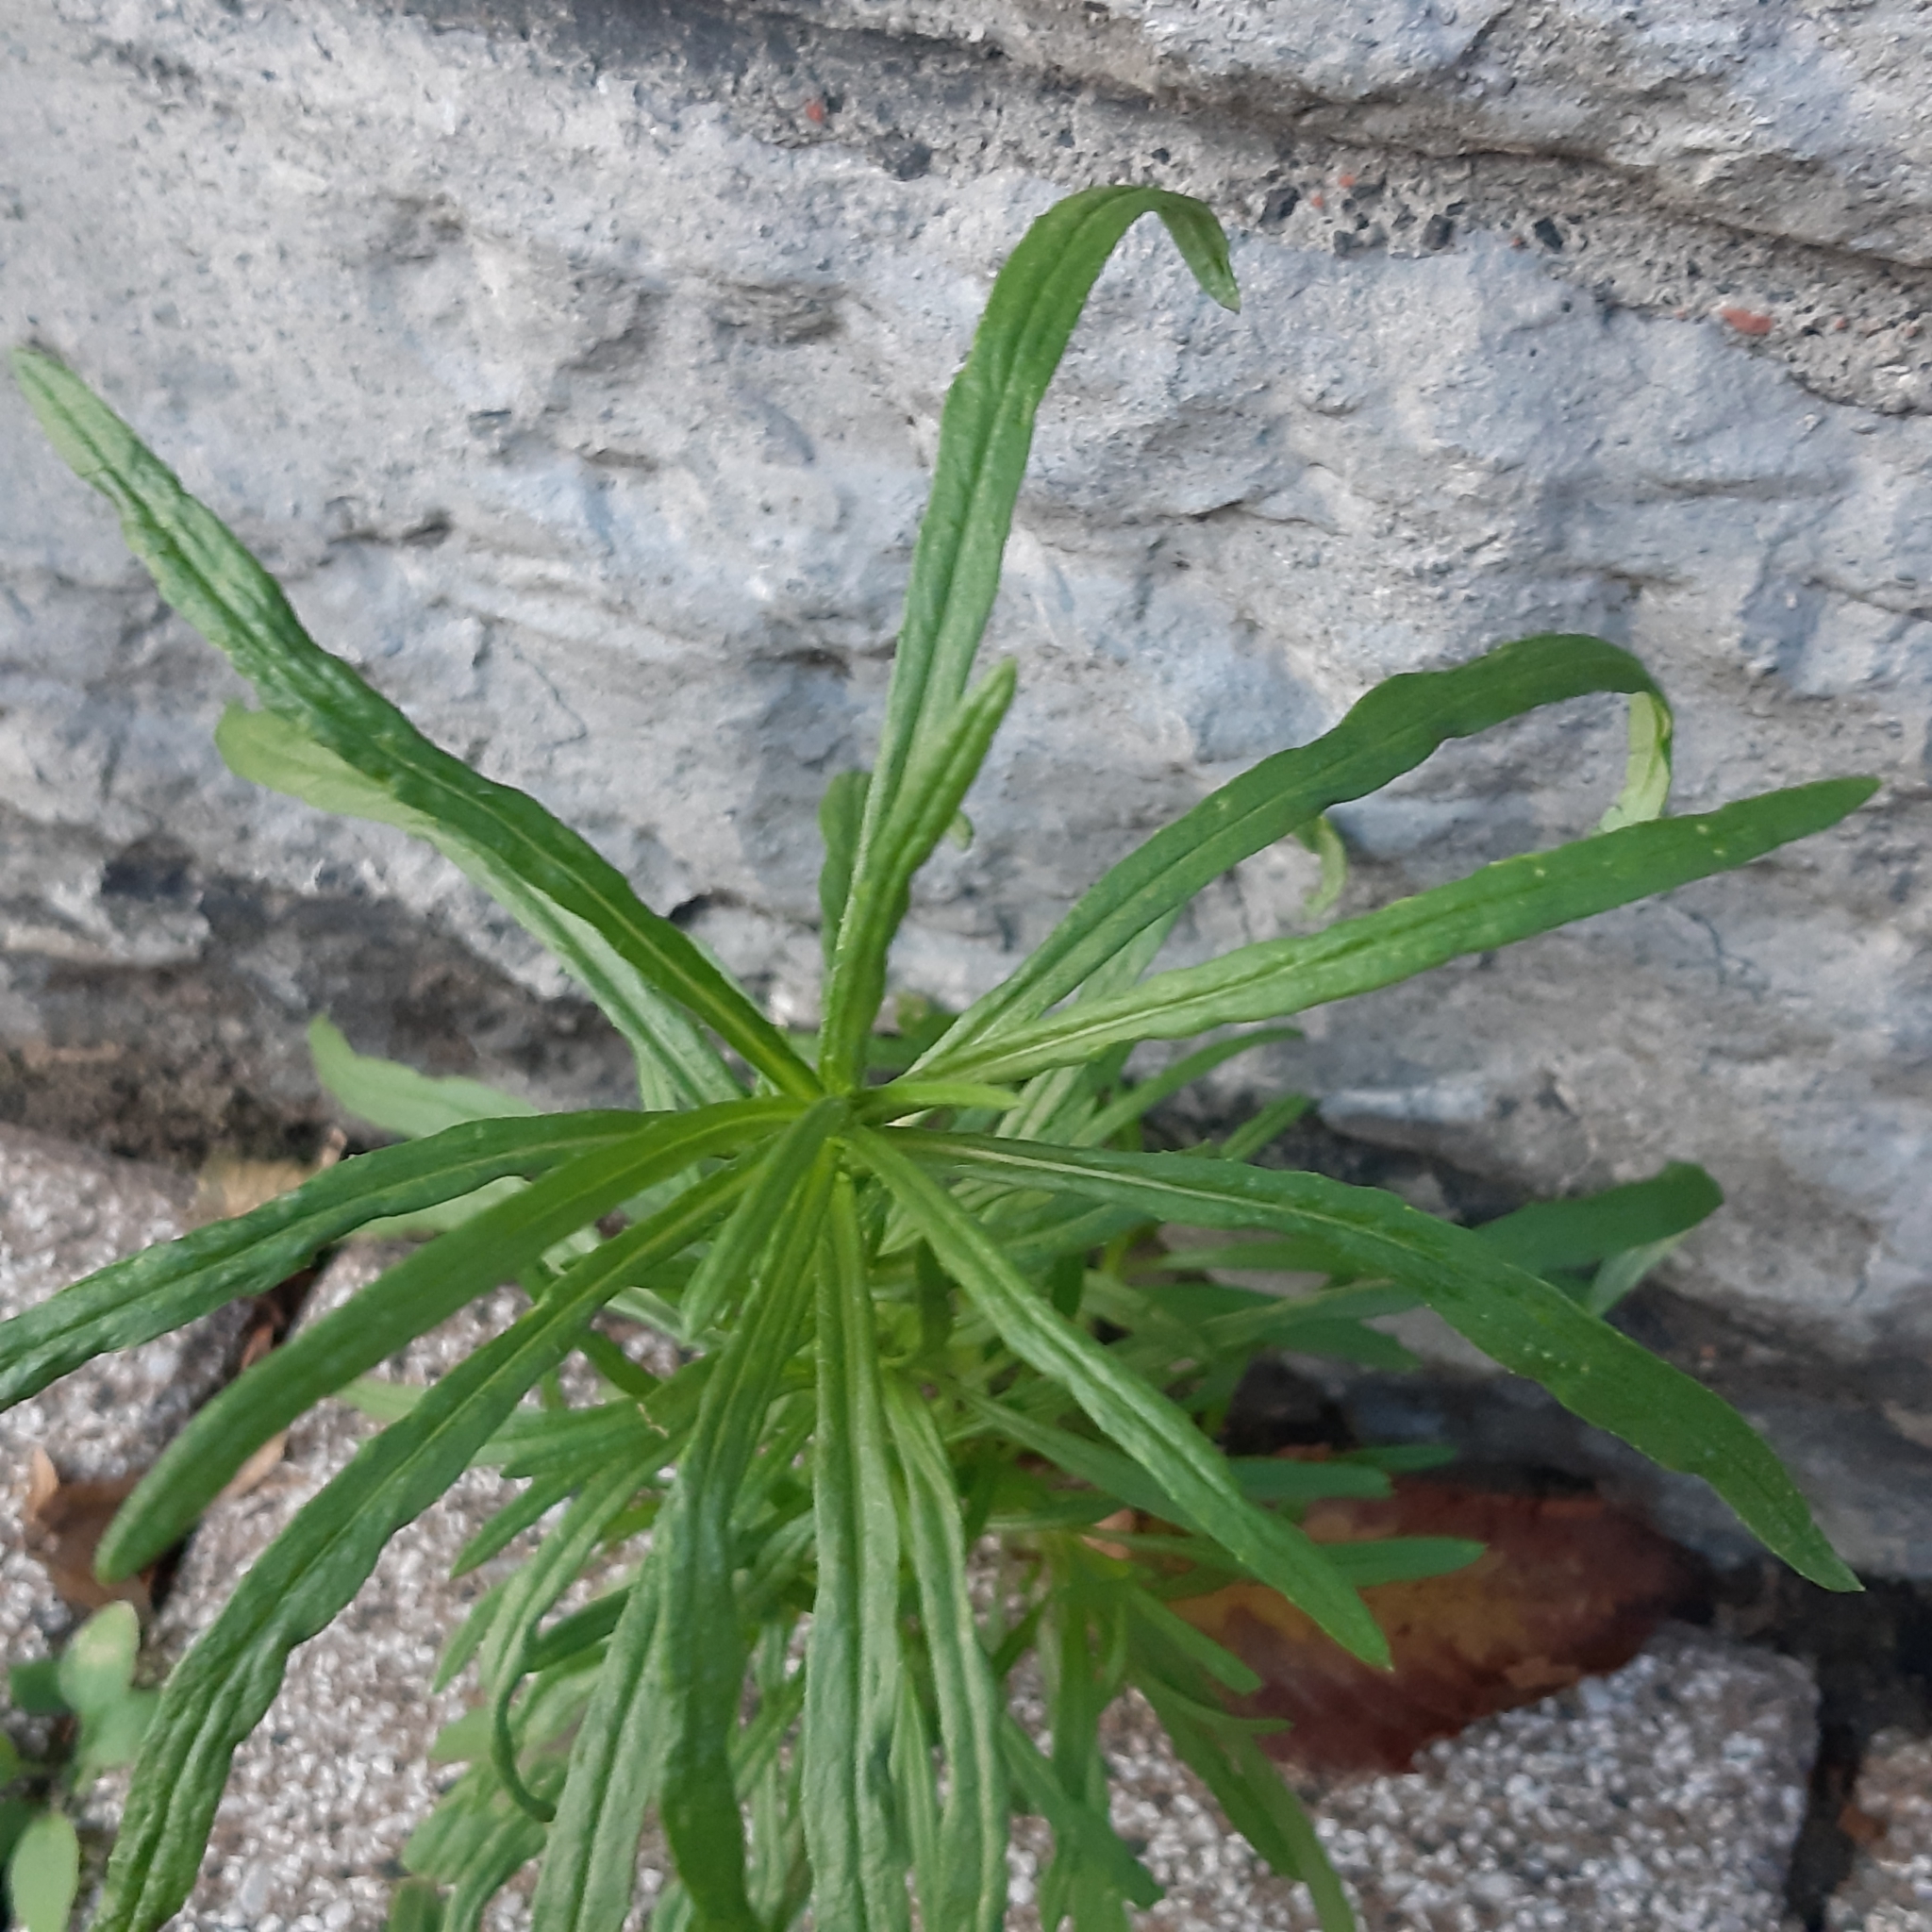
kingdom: Plantae
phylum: Tracheophyta
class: Magnoliopsida
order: Asterales
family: Asteraceae
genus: Senecio
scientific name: Senecio inaequidens
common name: Narrow-leaved ragwort
